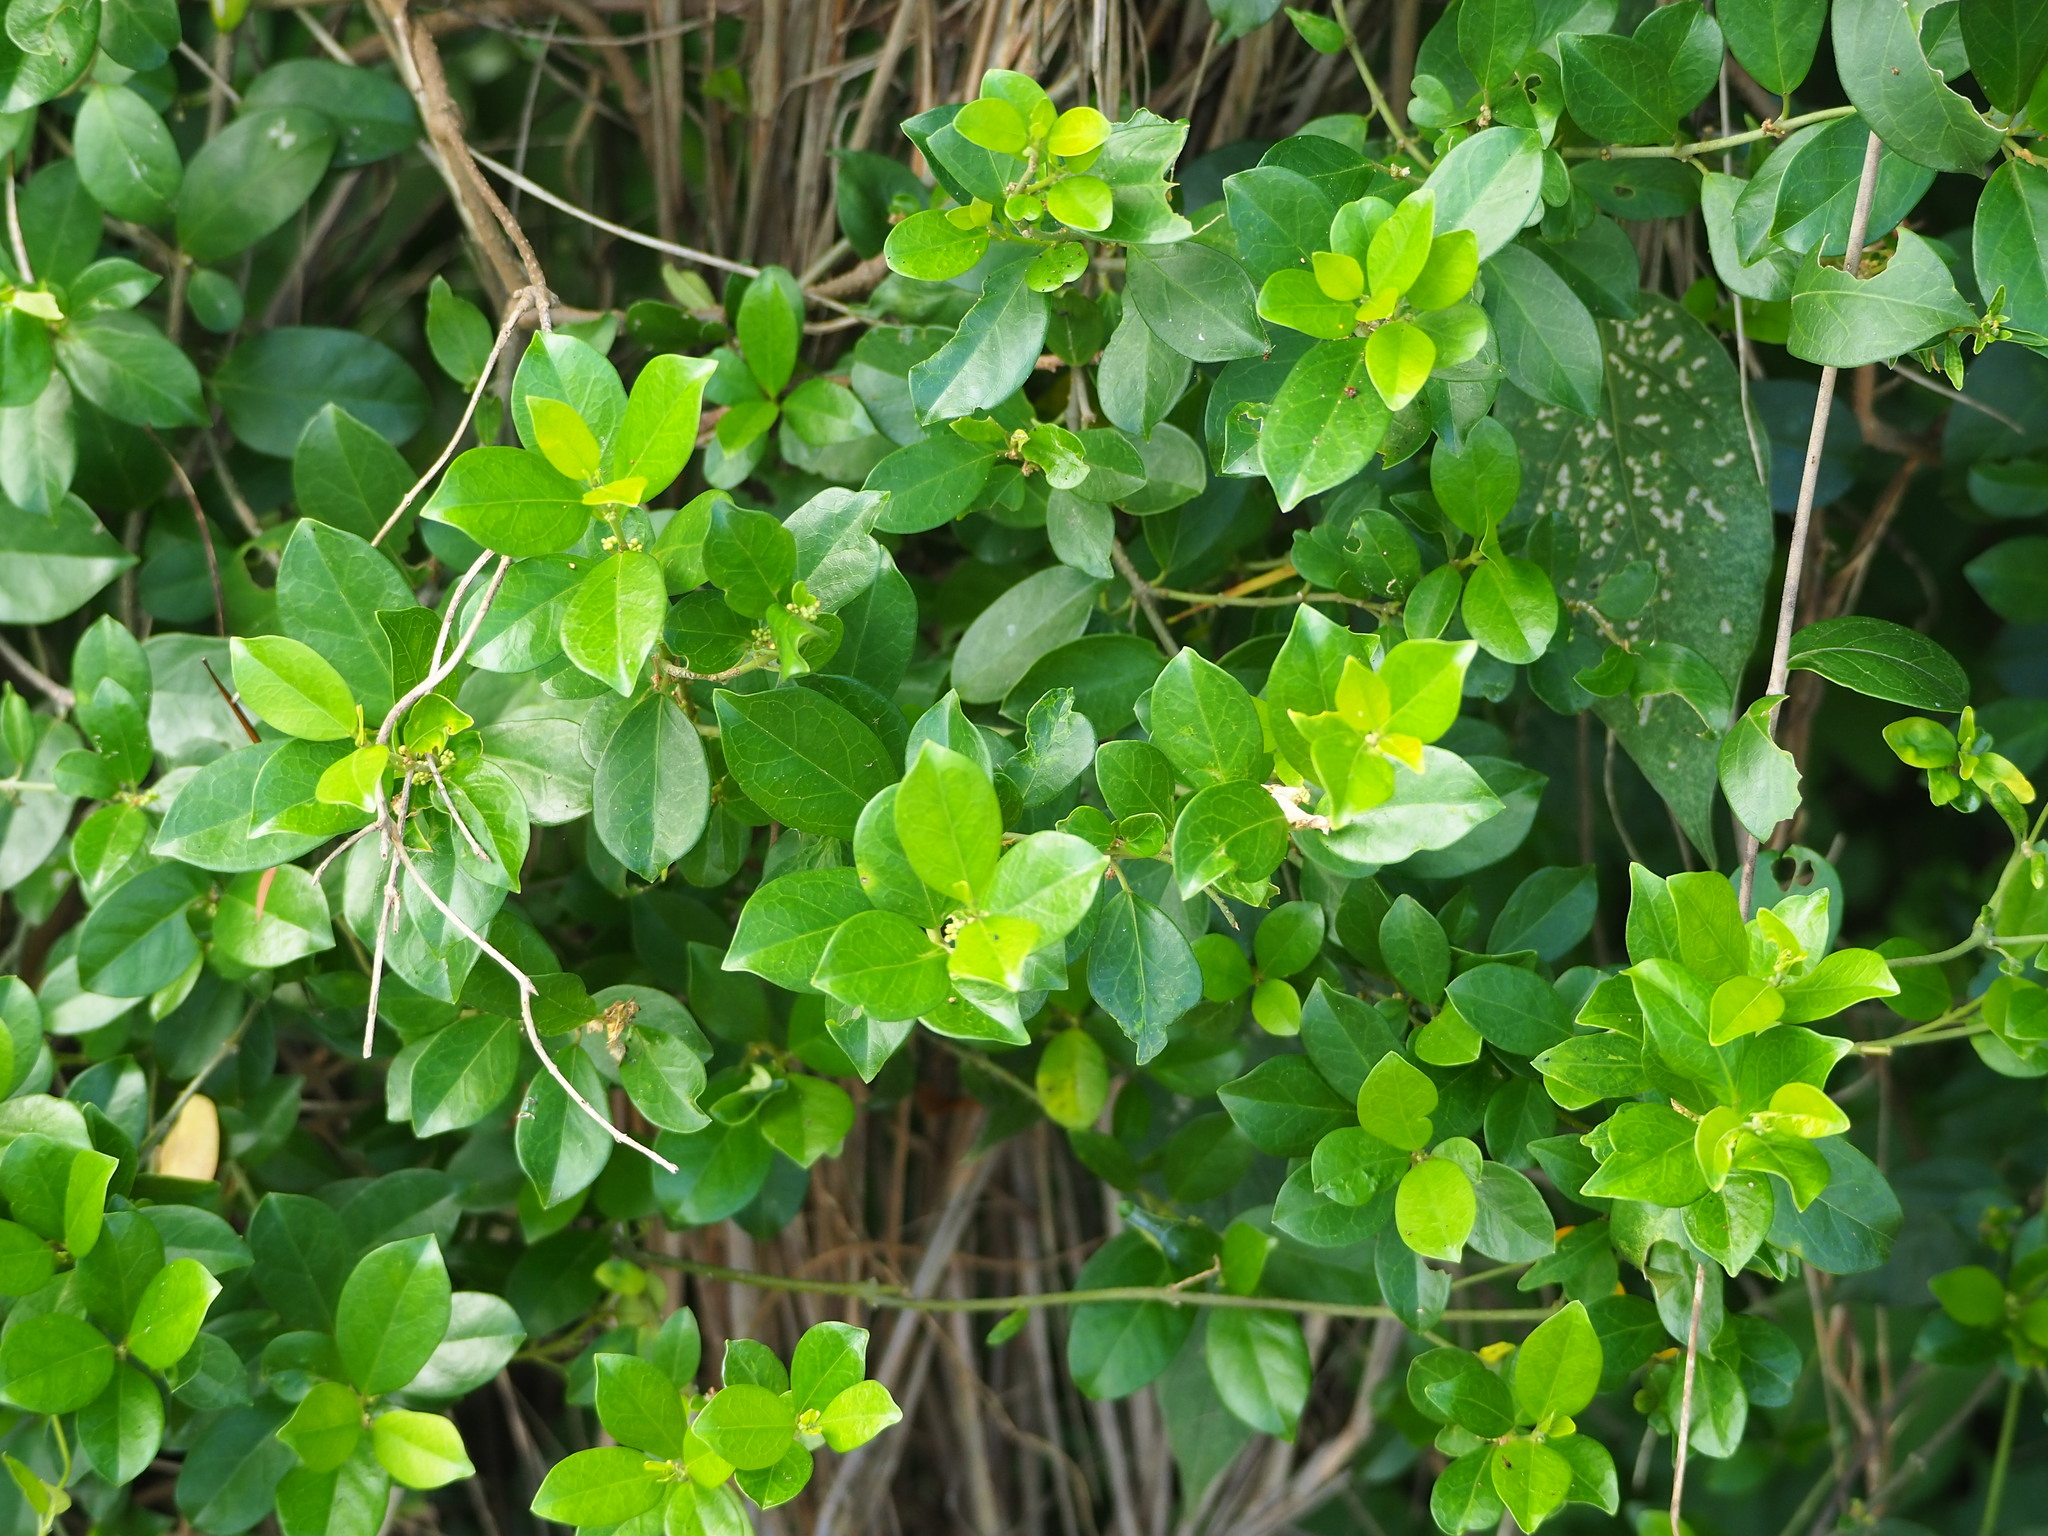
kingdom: Plantae
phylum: Tracheophyta
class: Magnoliopsida
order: Gentianales
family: Apocynaceae
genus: Gymnema
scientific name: Gymnema sylvestre
